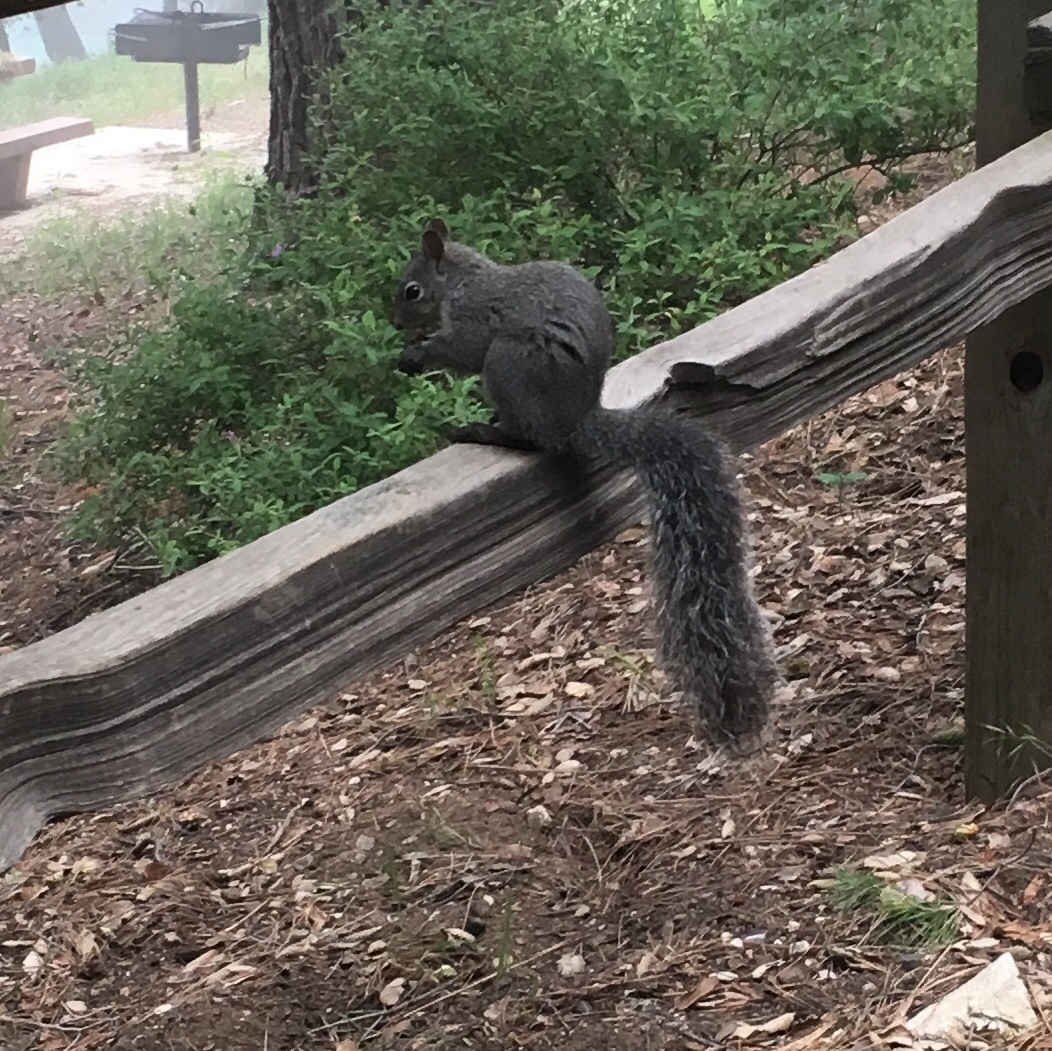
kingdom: Animalia
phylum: Chordata
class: Mammalia
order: Rodentia
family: Sciuridae
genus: Sciurus
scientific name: Sciurus griseus
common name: Western gray squirrel
